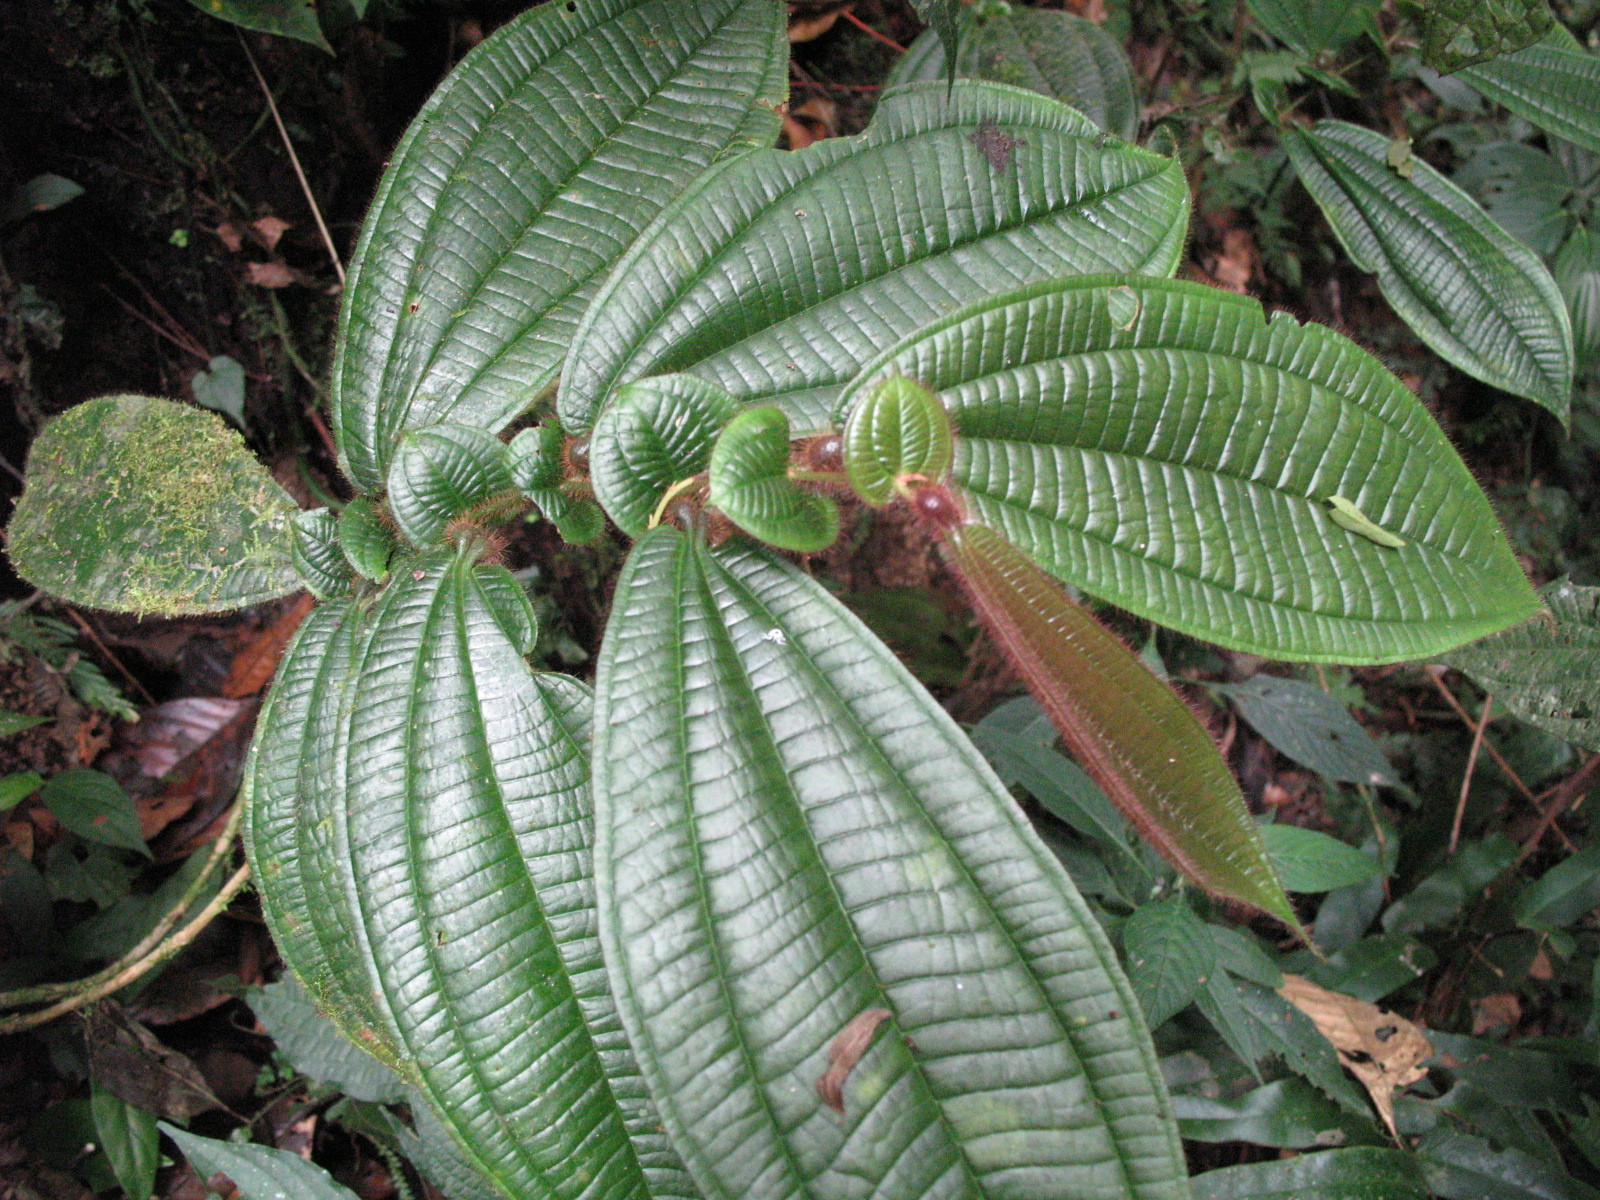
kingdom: Plantae
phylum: Tracheophyta
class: Magnoliopsida
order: Myrtales
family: Melastomataceae
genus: Miconia
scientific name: Miconia richardsprucei
